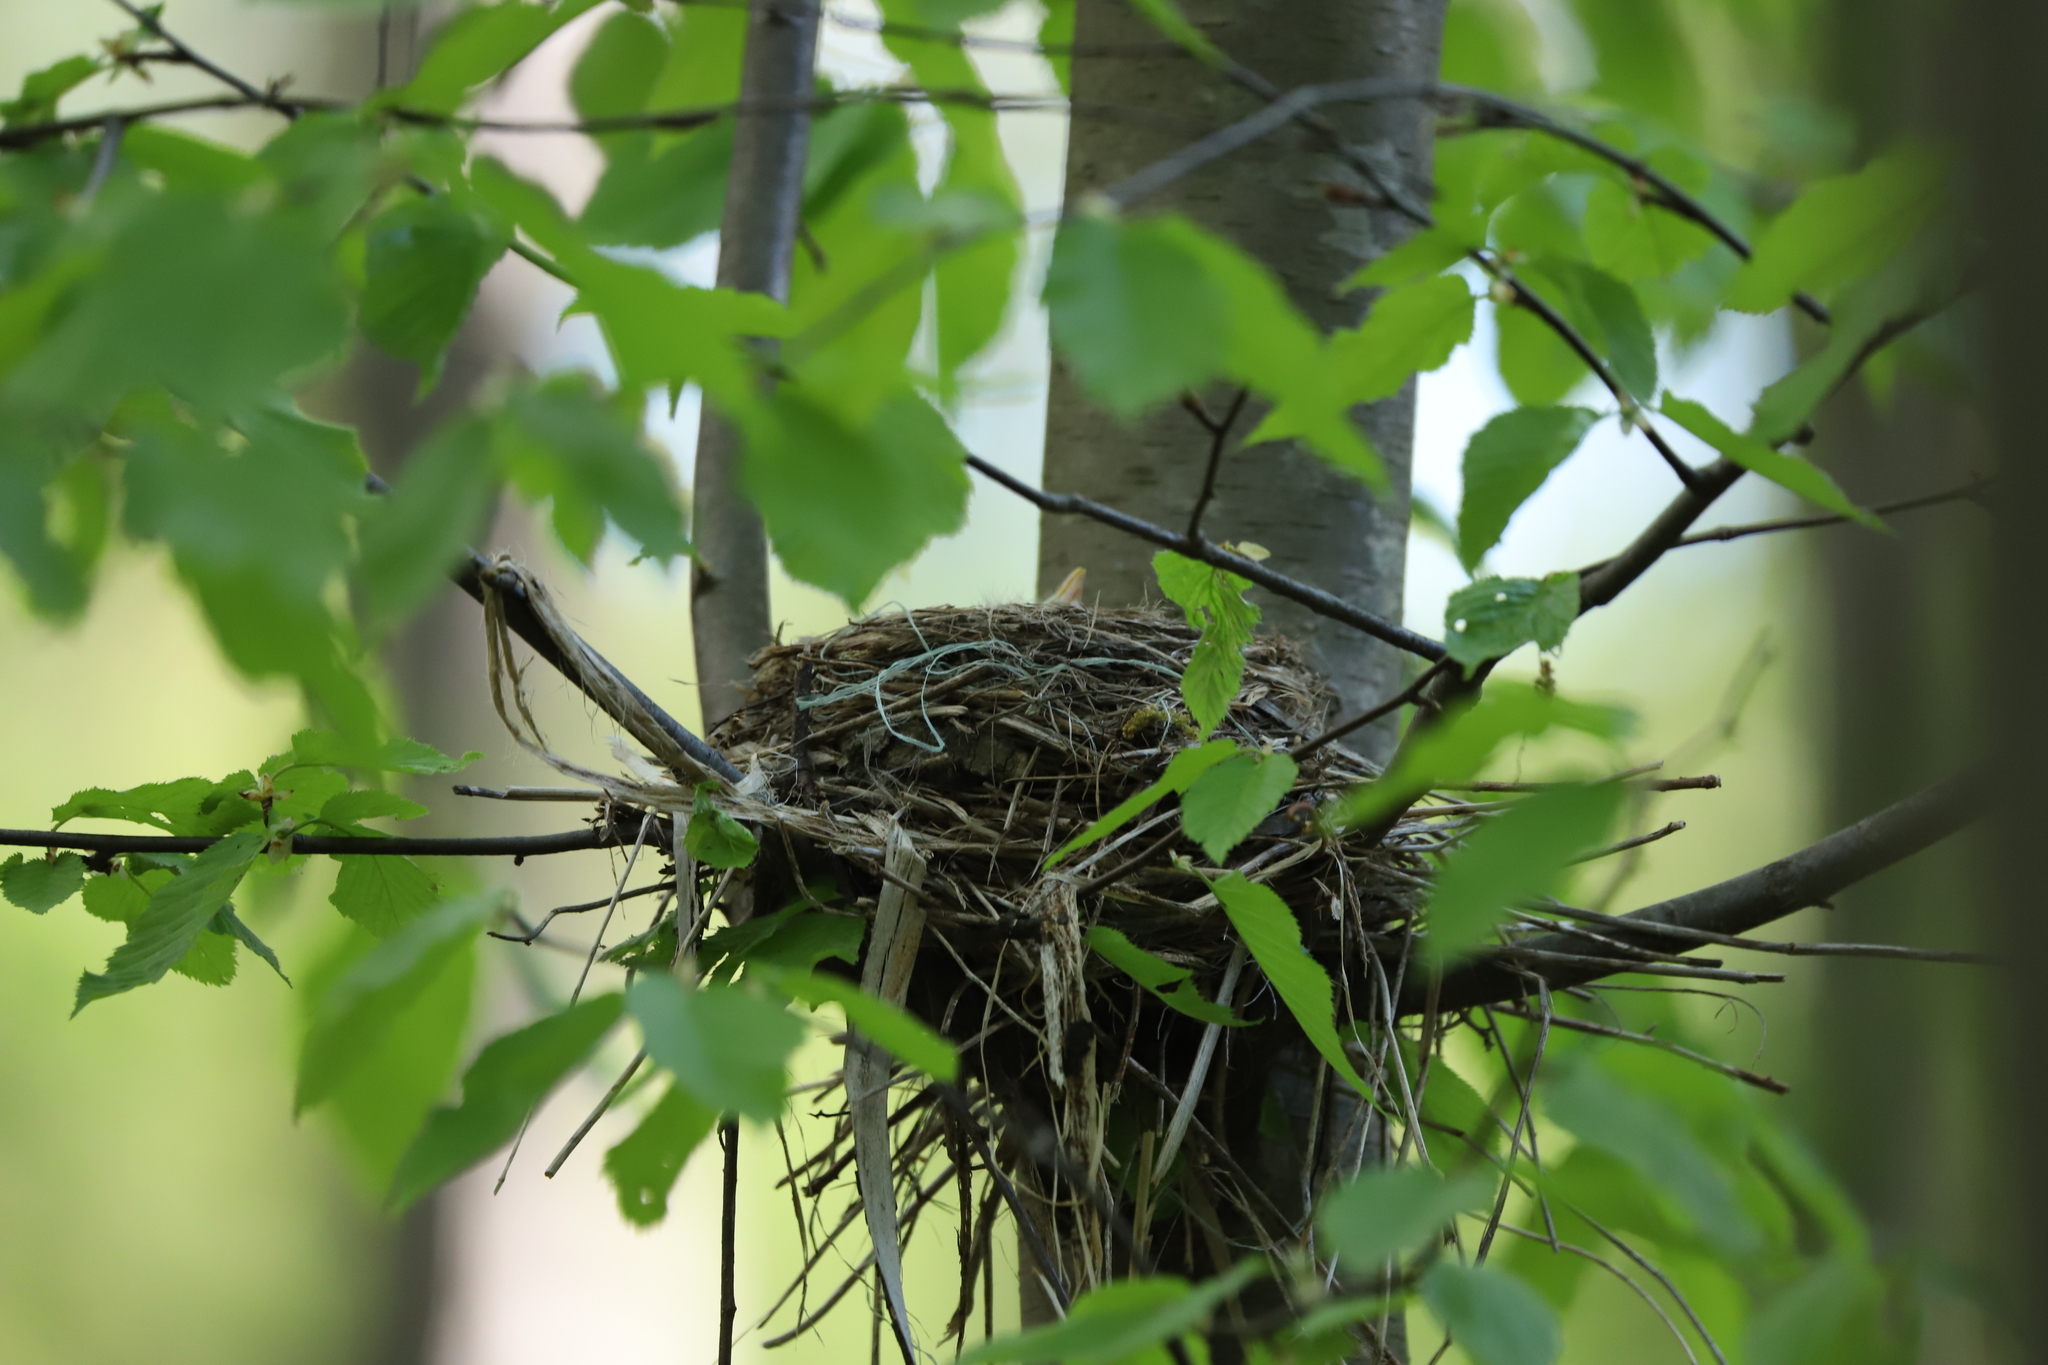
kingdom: Animalia
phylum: Chordata
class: Aves
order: Passeriformes
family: Turdidae
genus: Turdus
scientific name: Turdus migratorius
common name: American robin
